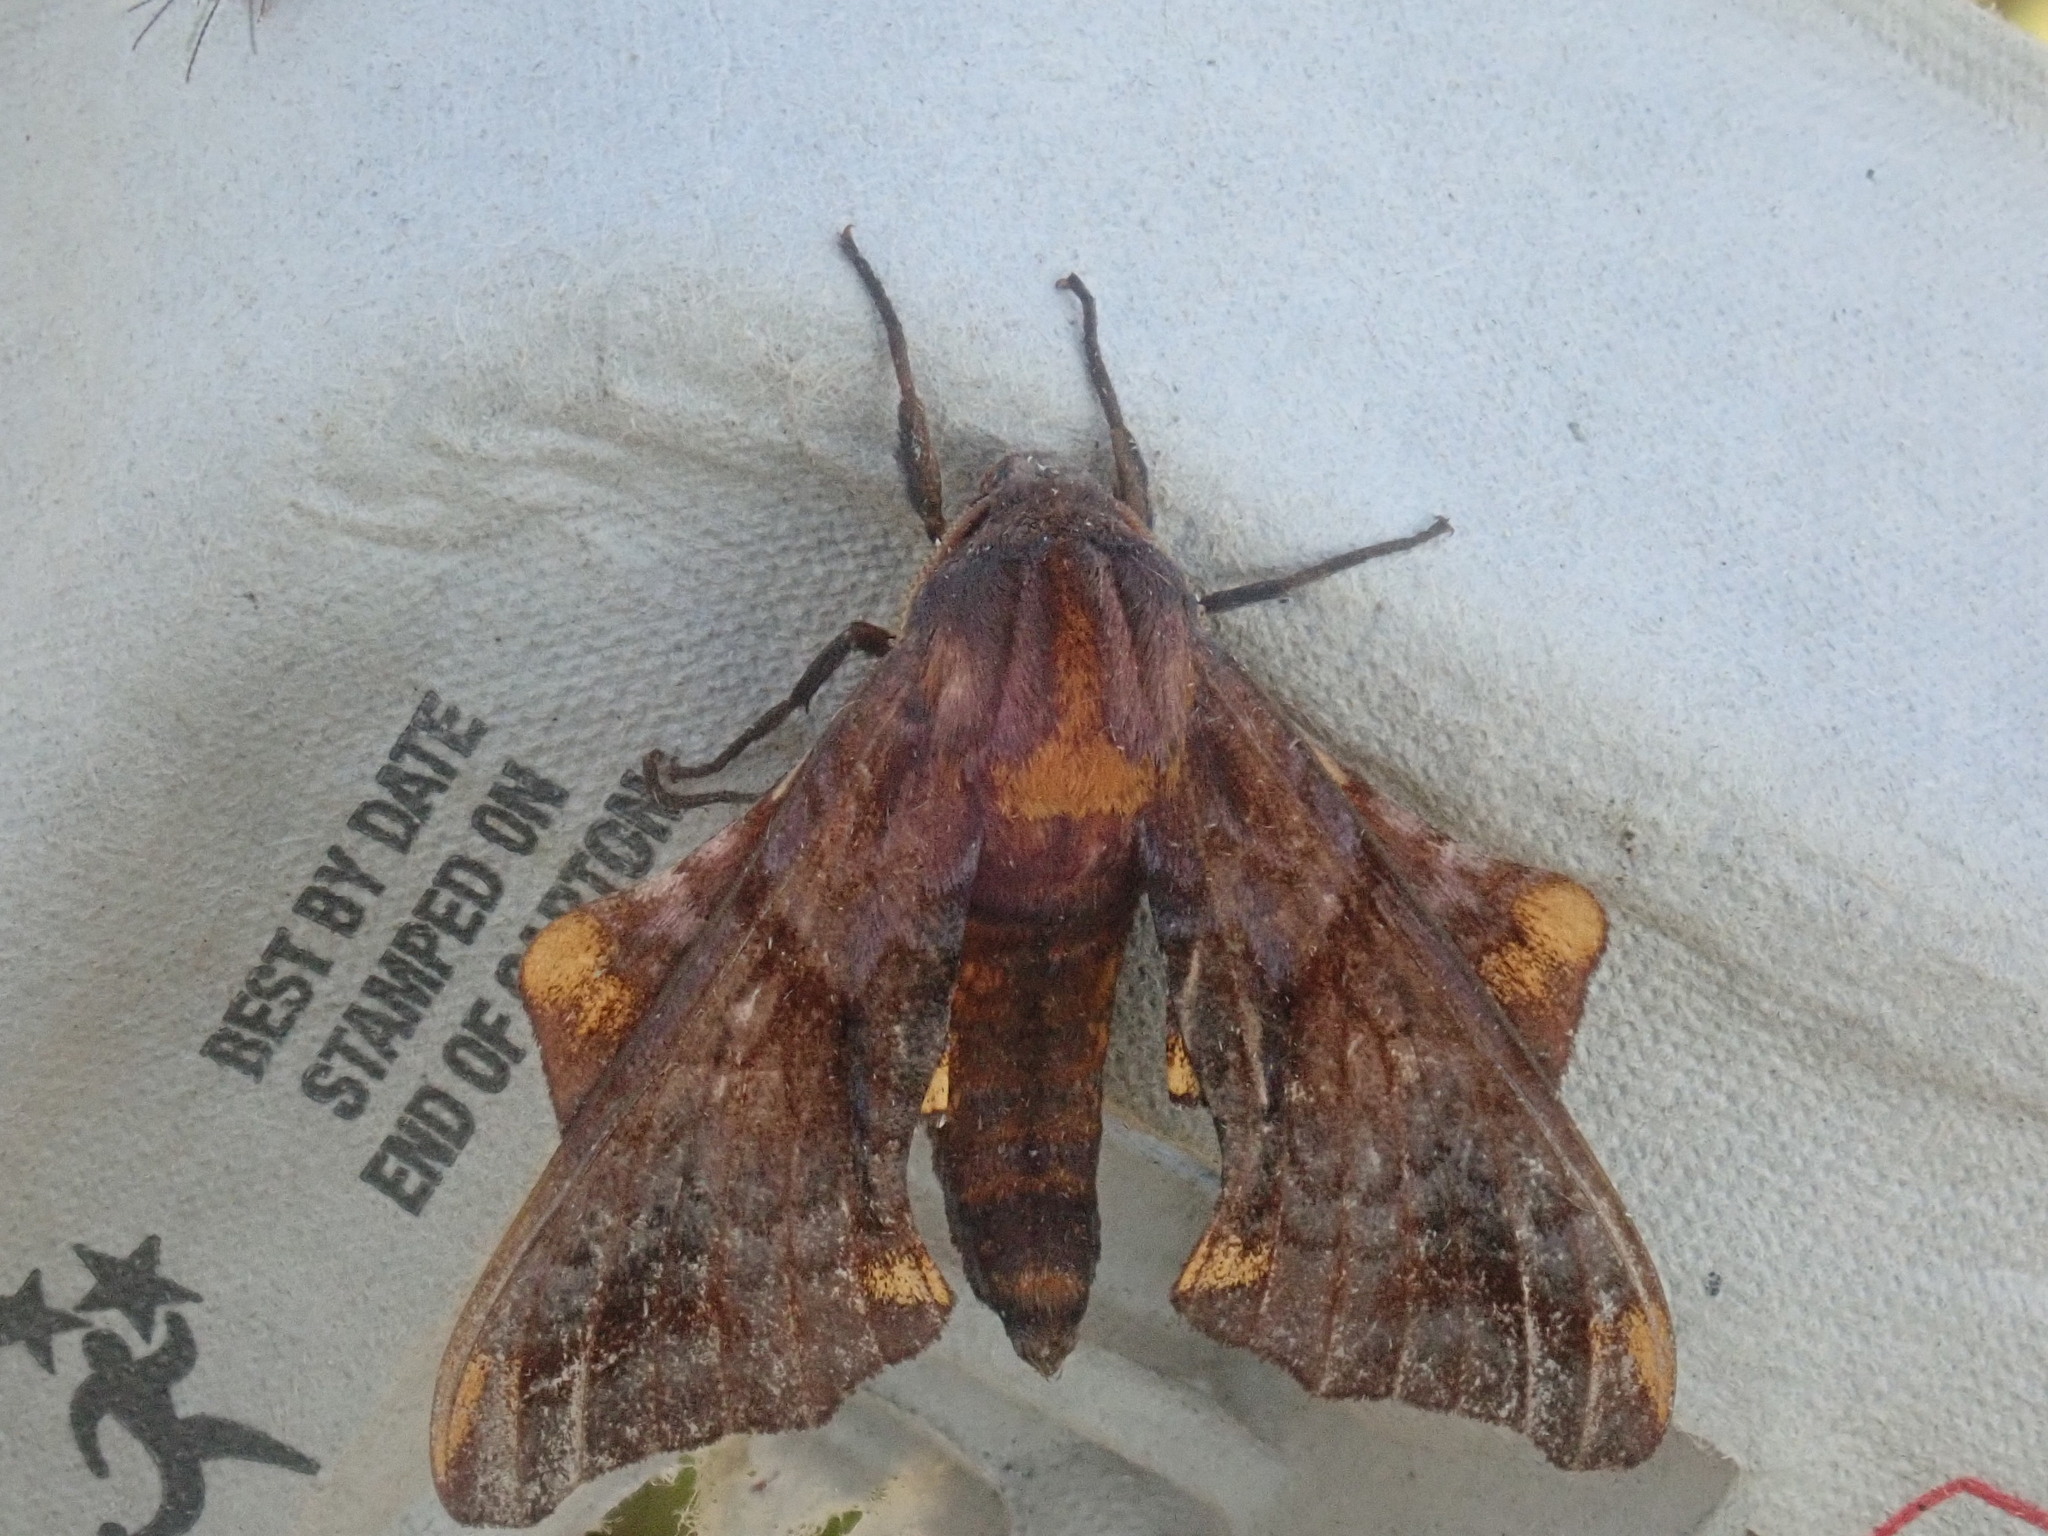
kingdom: Animalia
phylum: Arthropoda
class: Insecta
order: Lepidoptera
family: Sphingidae
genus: Paonias
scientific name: Paonias myops
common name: Small-eyed sphinx
